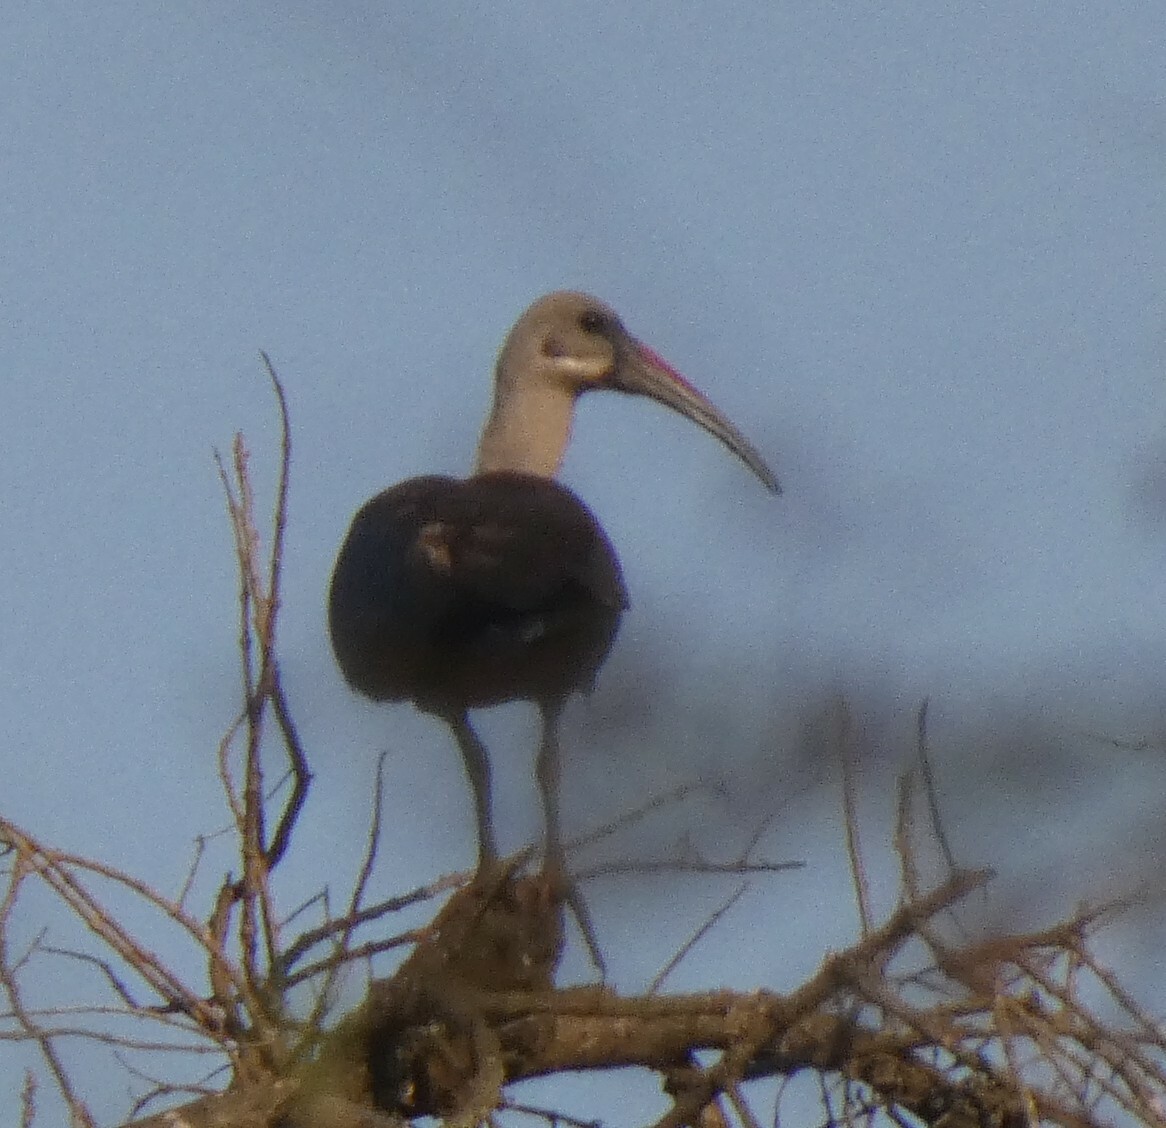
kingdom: Animalia
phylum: Chordata
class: Aves
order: Pelecaniformes
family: Threskiornithidae
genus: Bostrychia
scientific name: Bostrychia hagedash
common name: Hadada ibis
